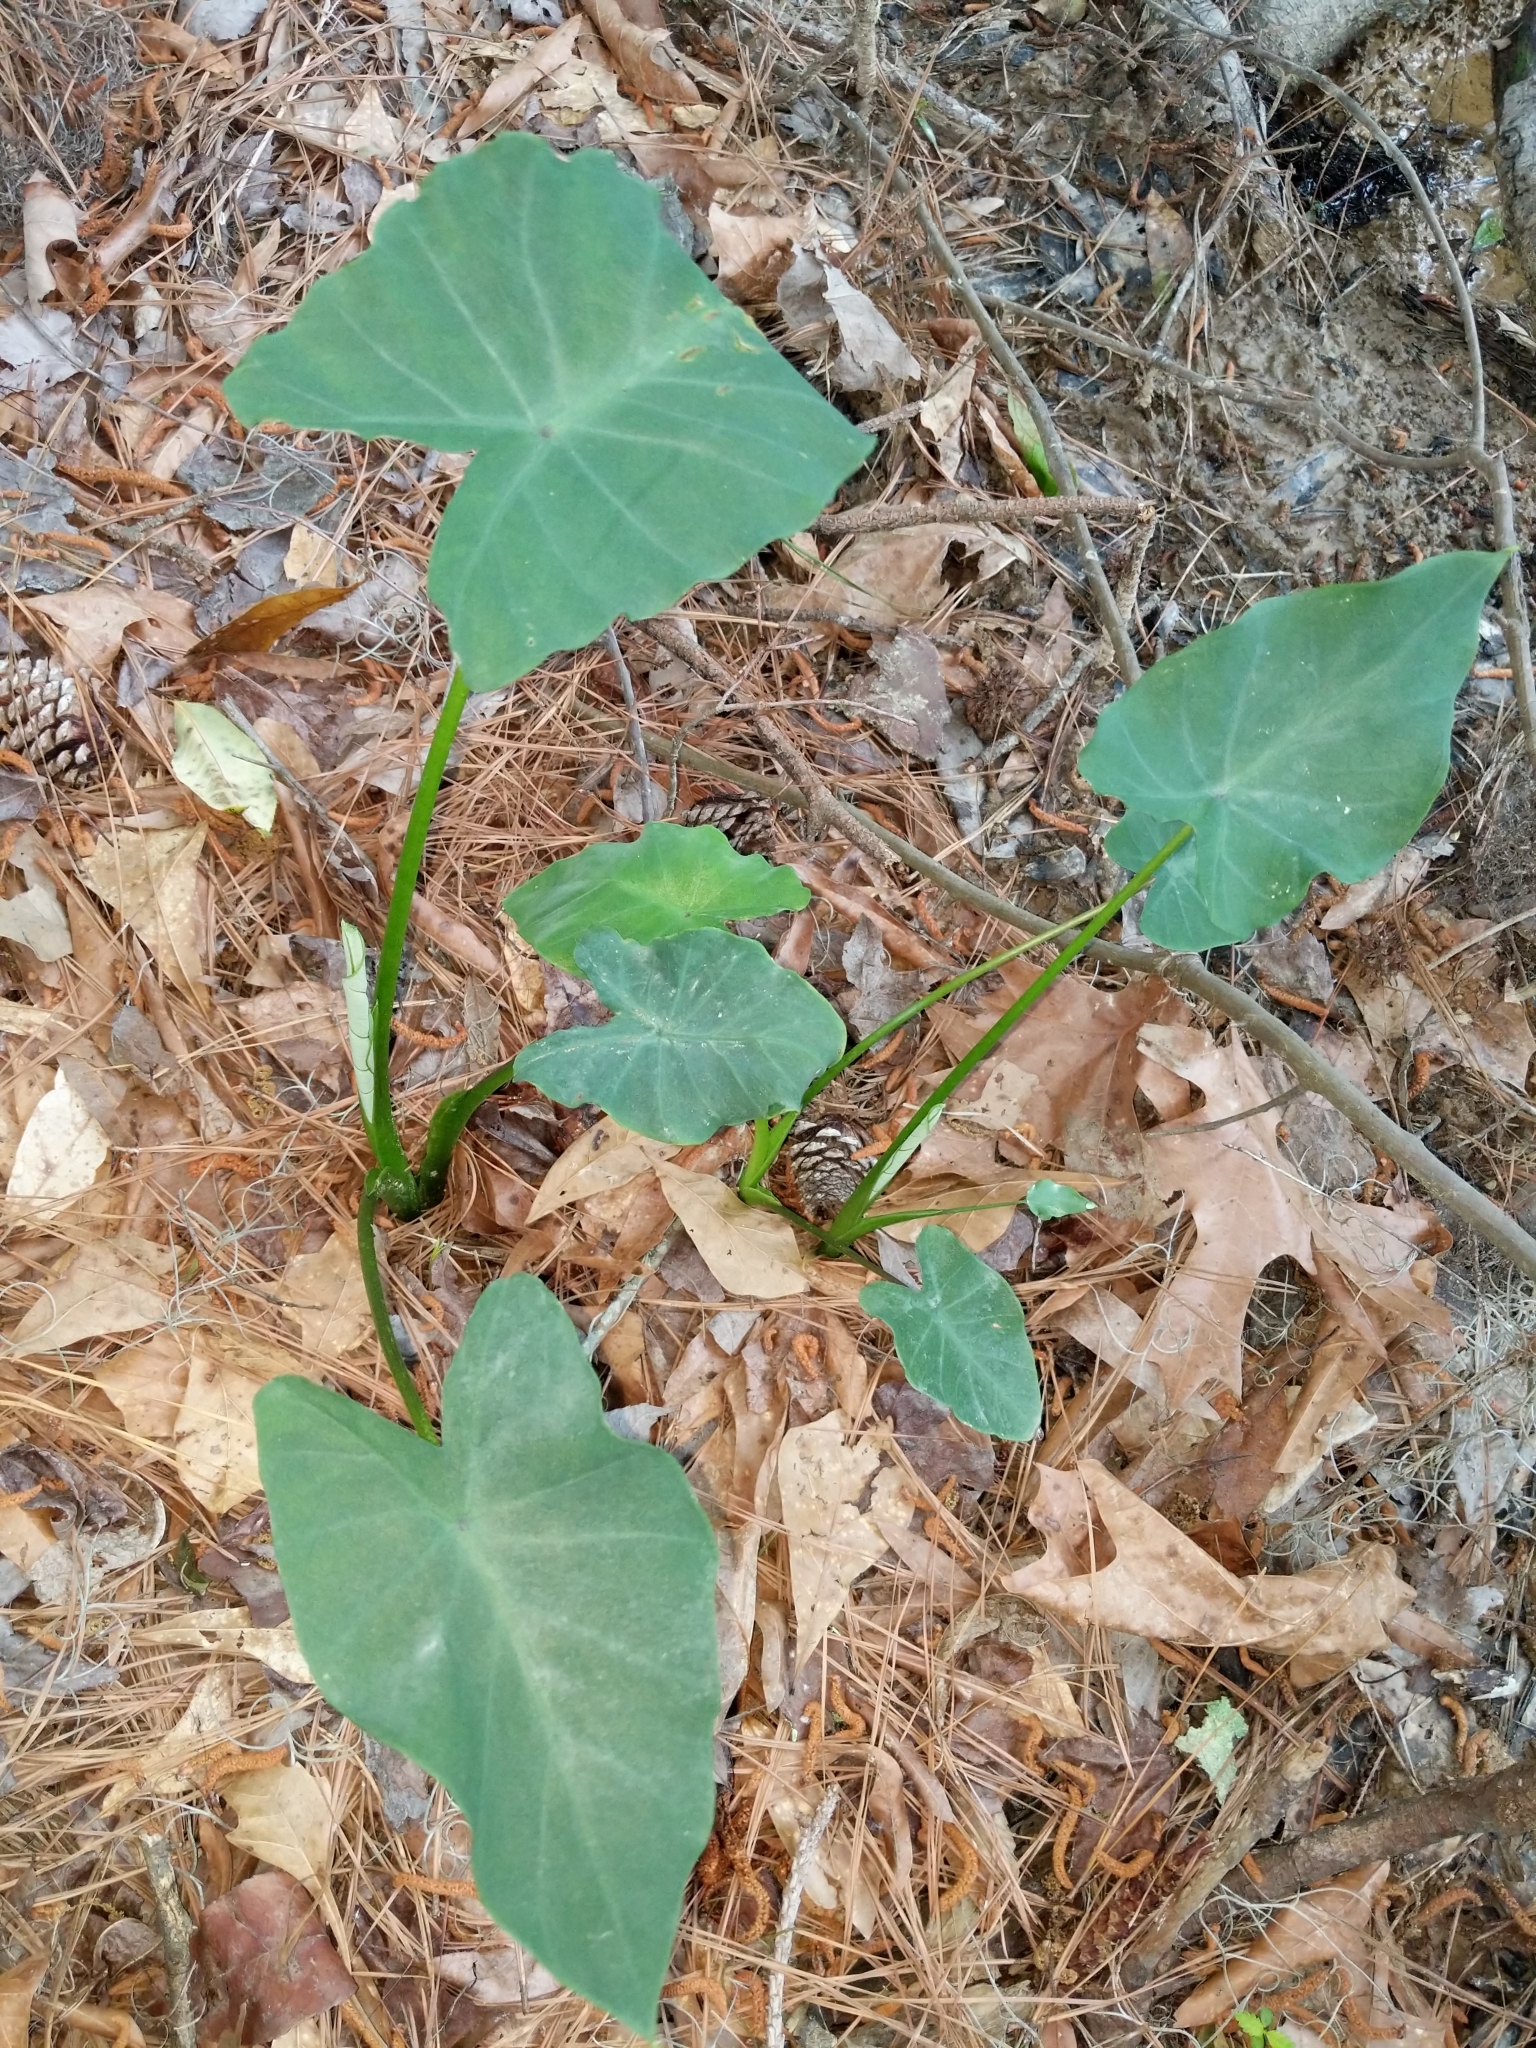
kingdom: Plantae
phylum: Tracheophyta
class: Liliopsida
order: Alismatales
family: Araceae
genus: Colocasia
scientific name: Colocasia esculenta
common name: Taro
